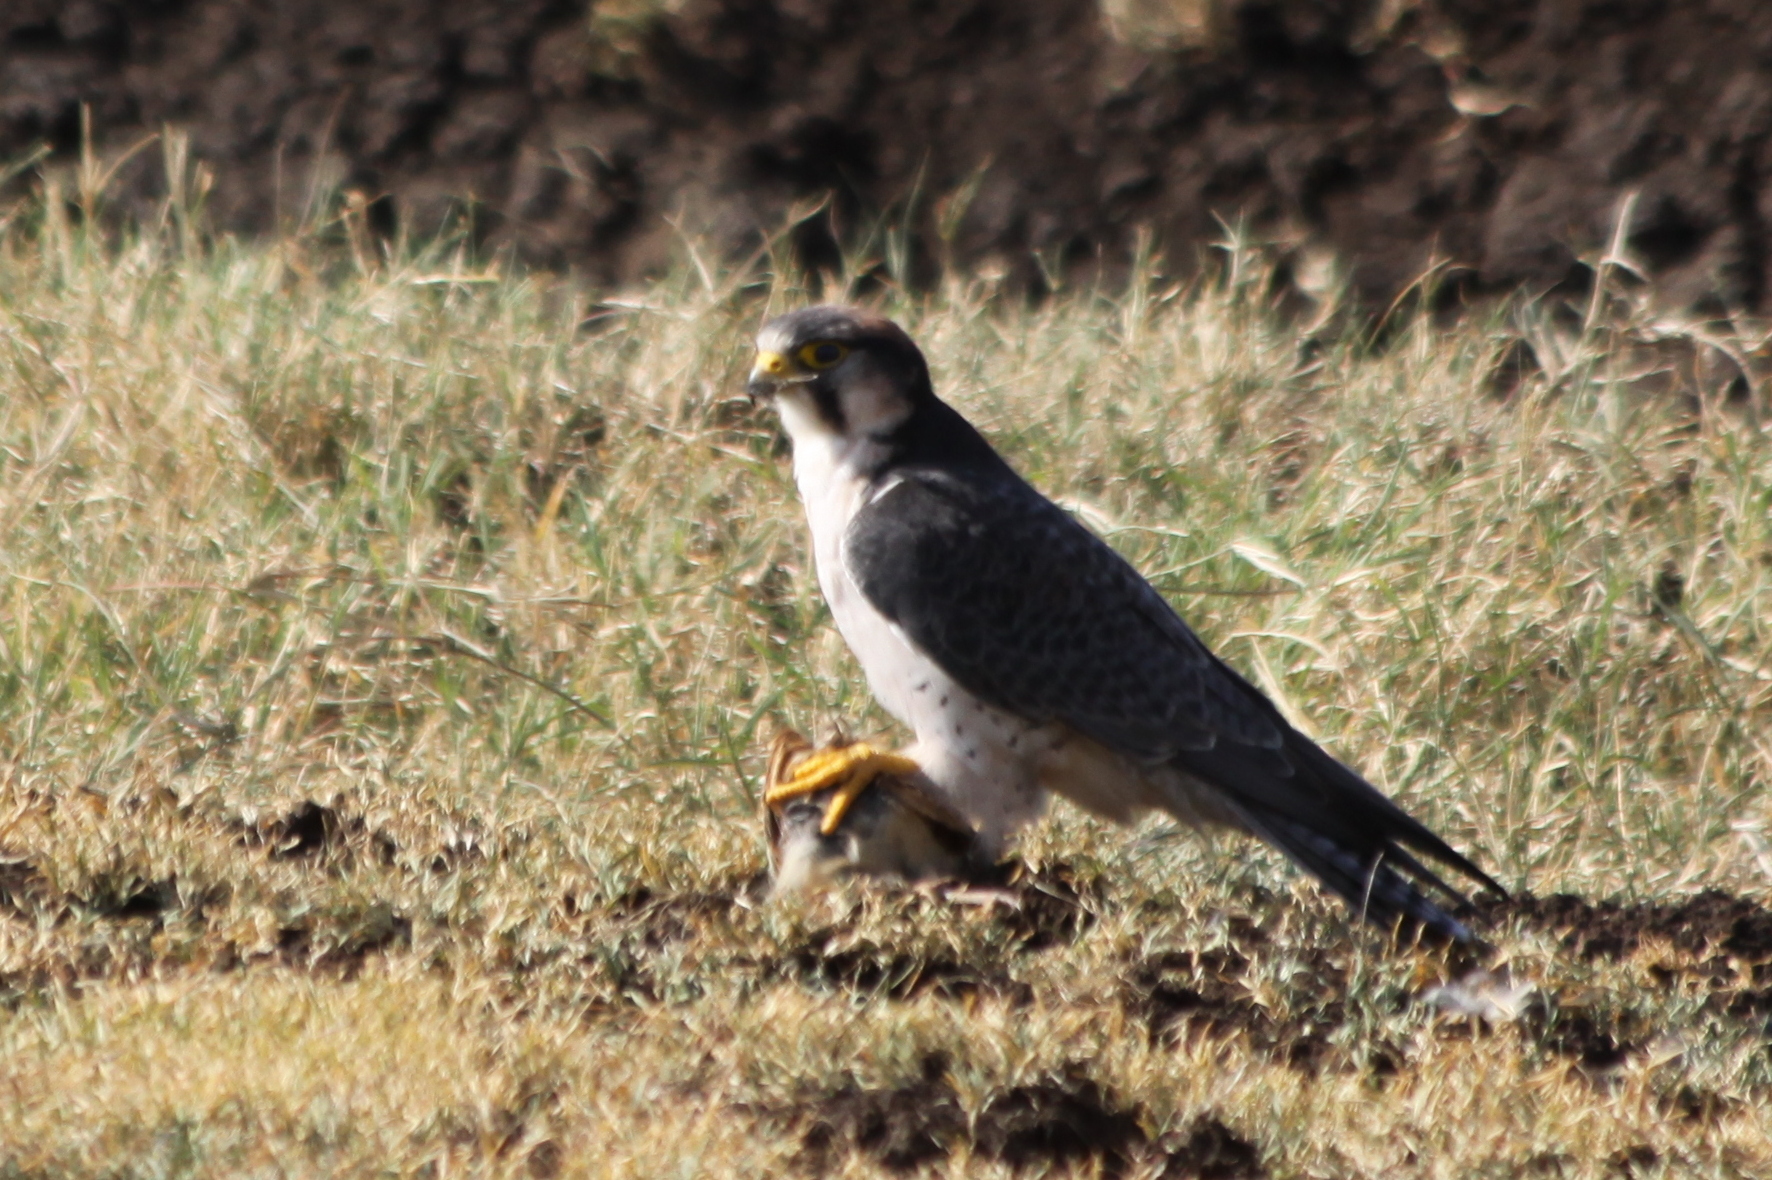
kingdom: Animalia
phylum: Chordata
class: Aves
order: Falconiformes
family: Falconidae
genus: Falco
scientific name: Falco biarmicus
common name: Lanner falcon
